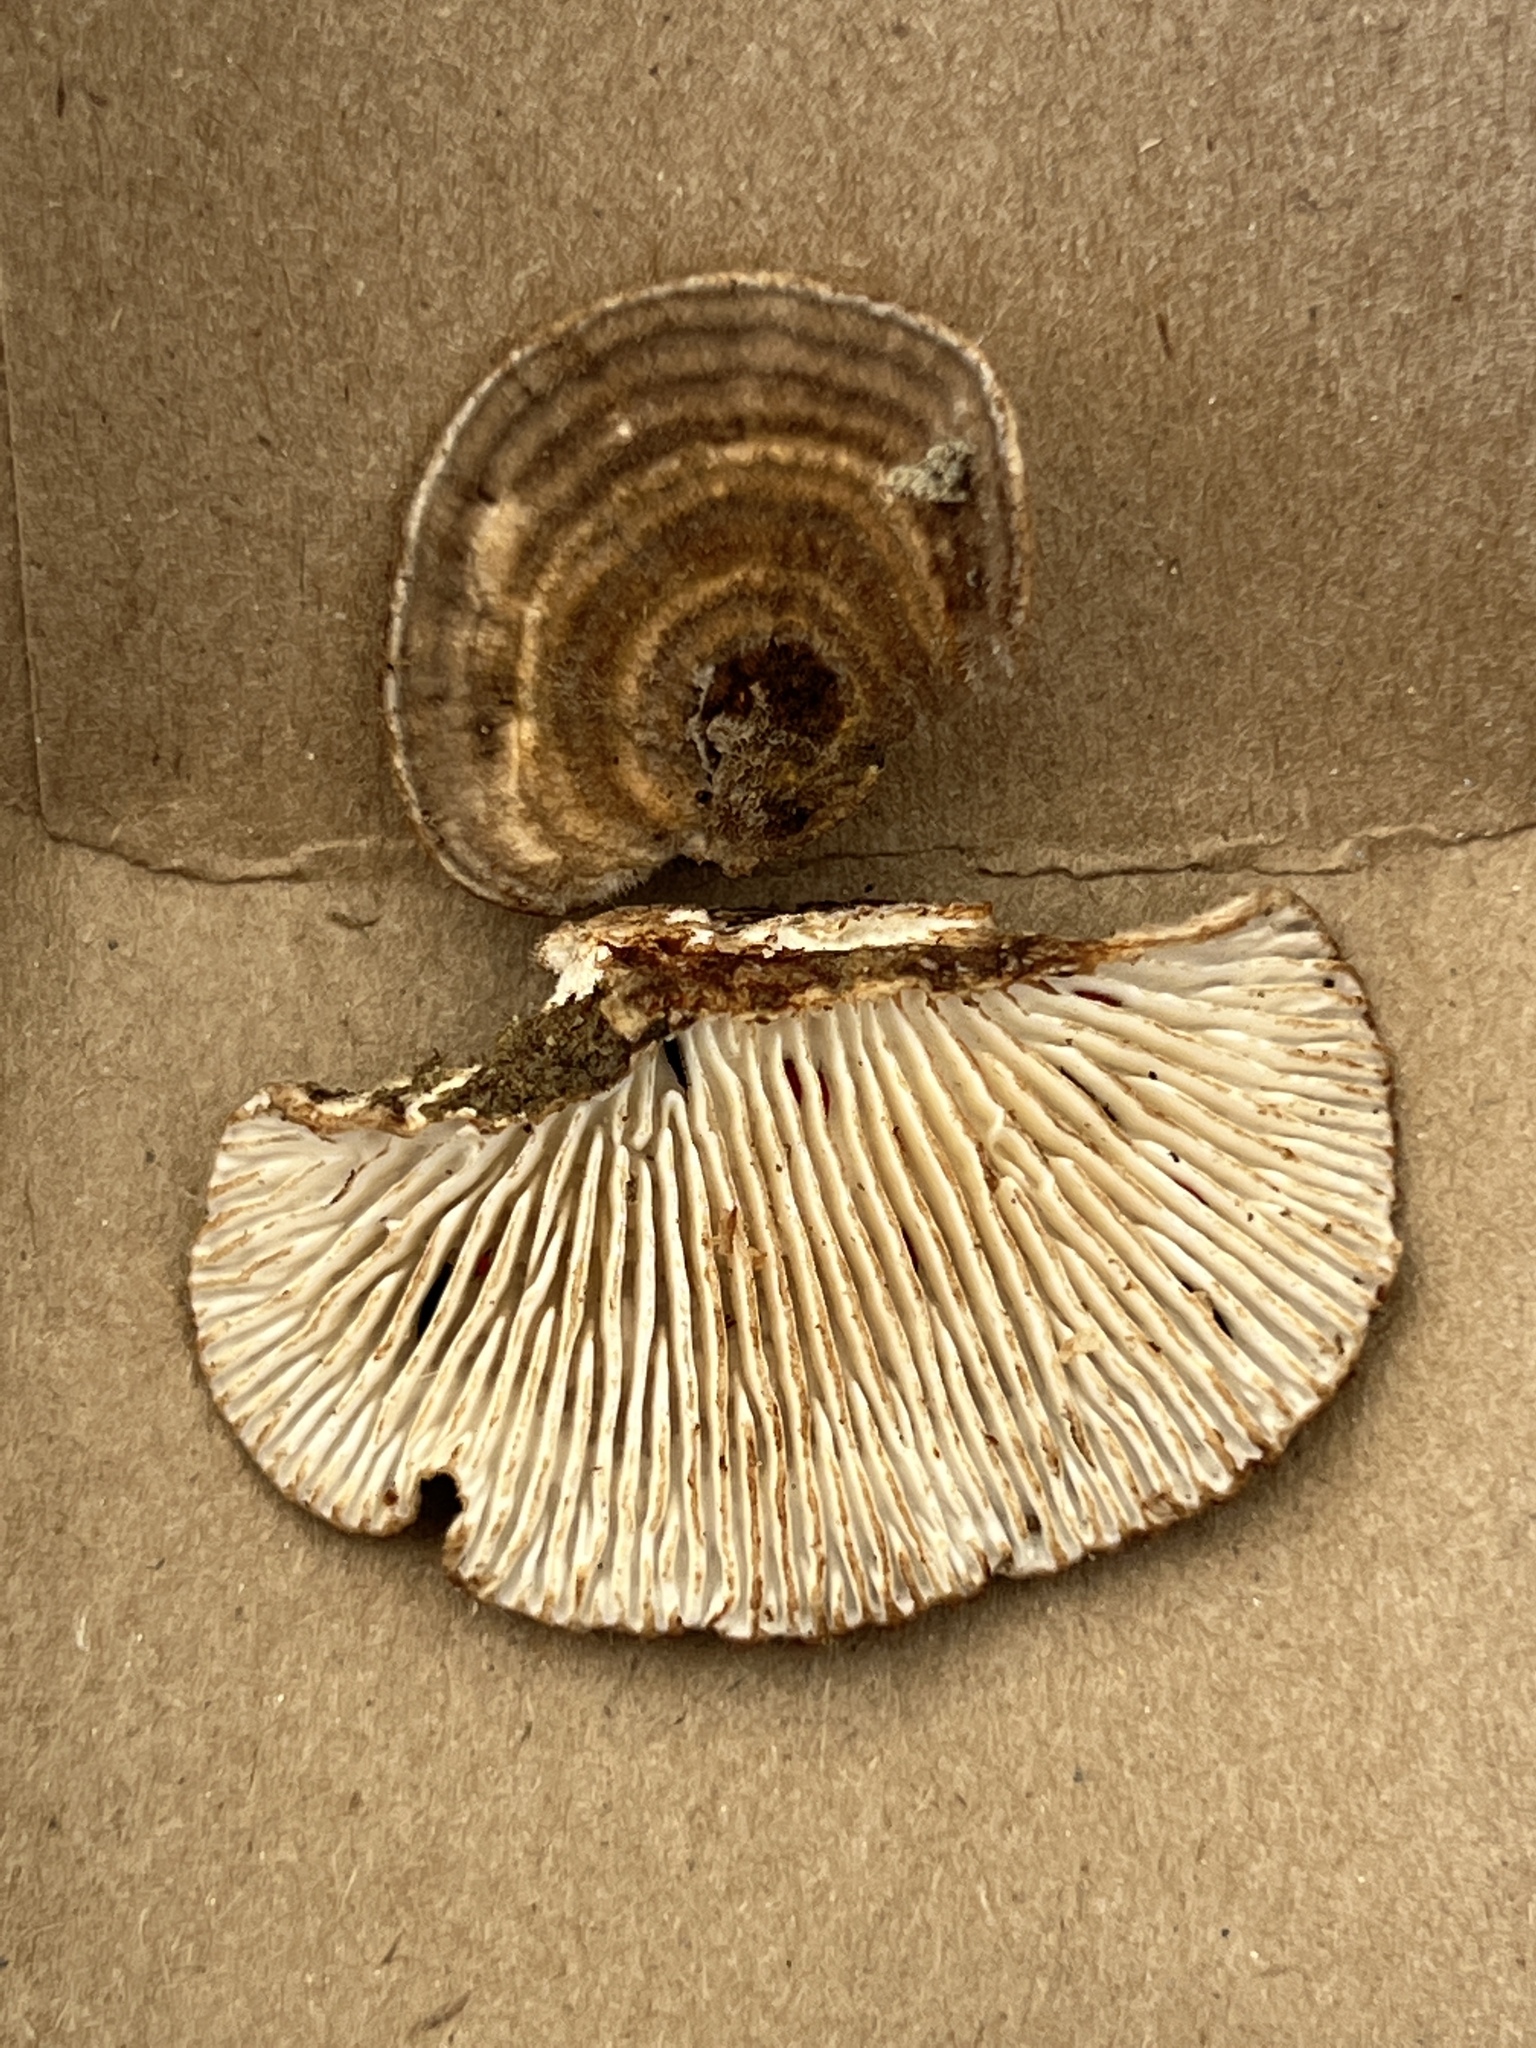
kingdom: Fungi
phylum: Basidiomycota
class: Agaricomycetes
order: Polyporales
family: Polyporaceae
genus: Lenzites
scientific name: Lenzites betulinus
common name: Birch mazegill
